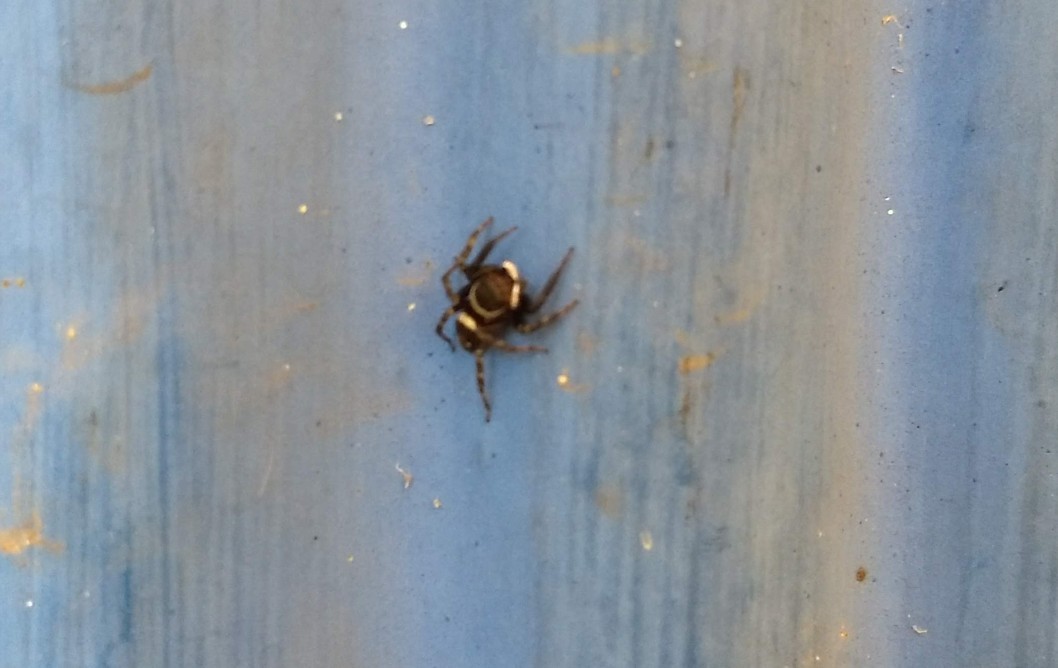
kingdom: Animalia
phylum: Arthropoda
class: Arachnida
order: Araneae
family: Salticidae
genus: Hasarius
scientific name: Hasarius adansoni
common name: Jumping spider
